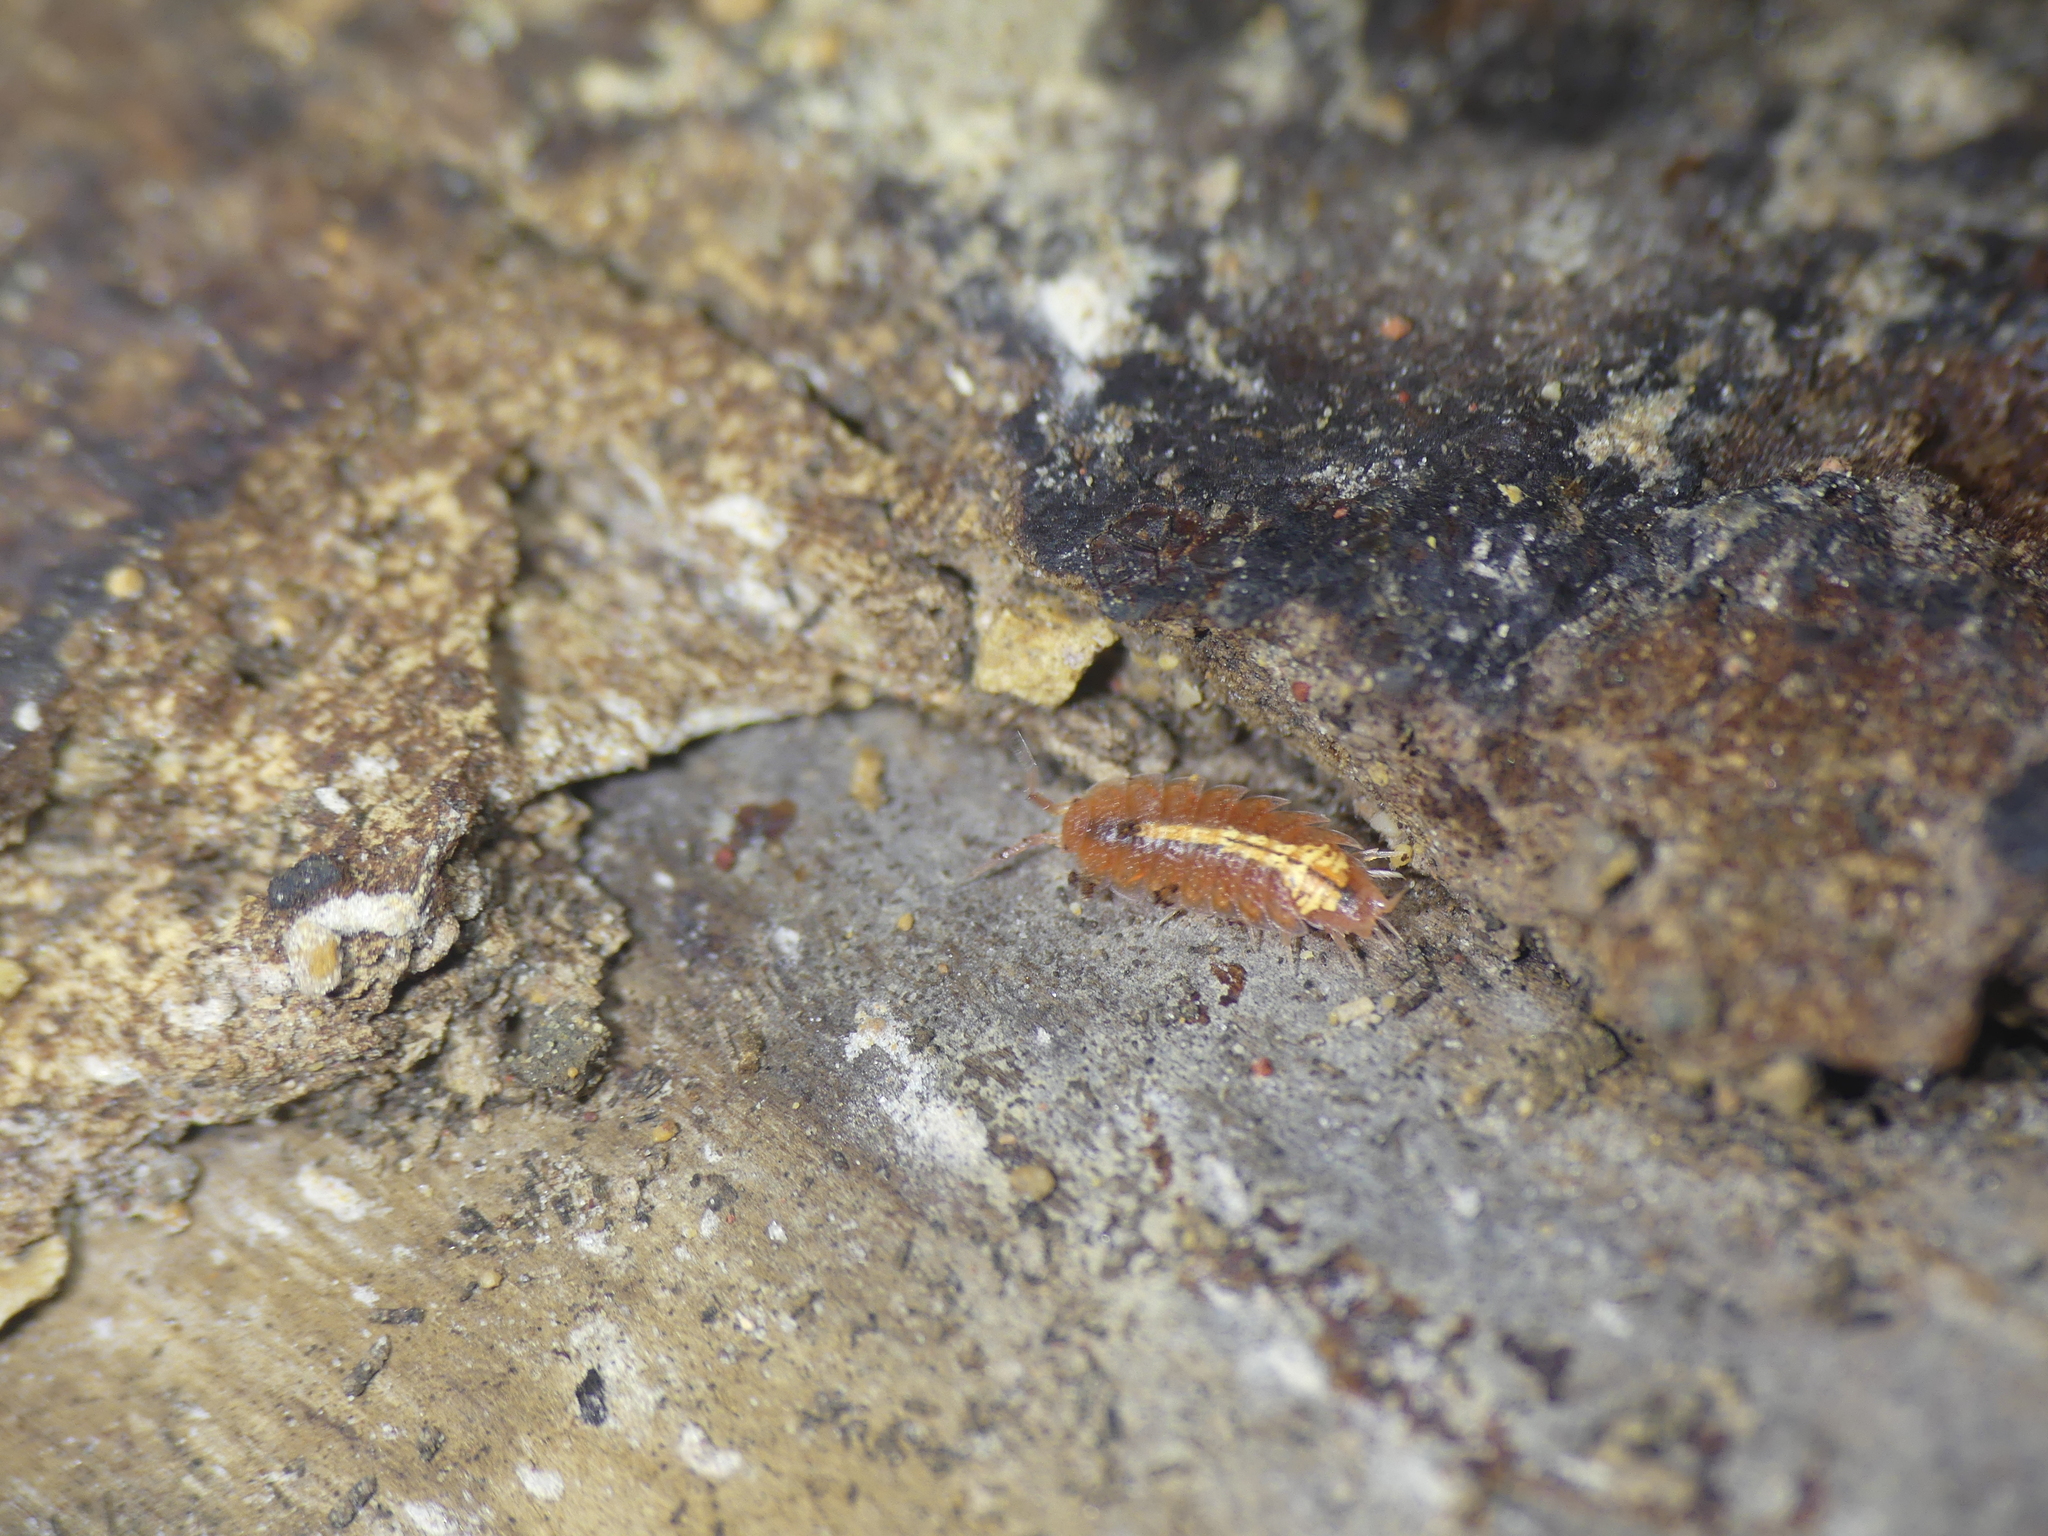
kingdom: Animalia
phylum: Arthropoda
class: Malacostraca
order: Isopoda
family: Trichoniscidae
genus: Androniscus
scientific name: Androniscus dentiger
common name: Rosy woodlouse
